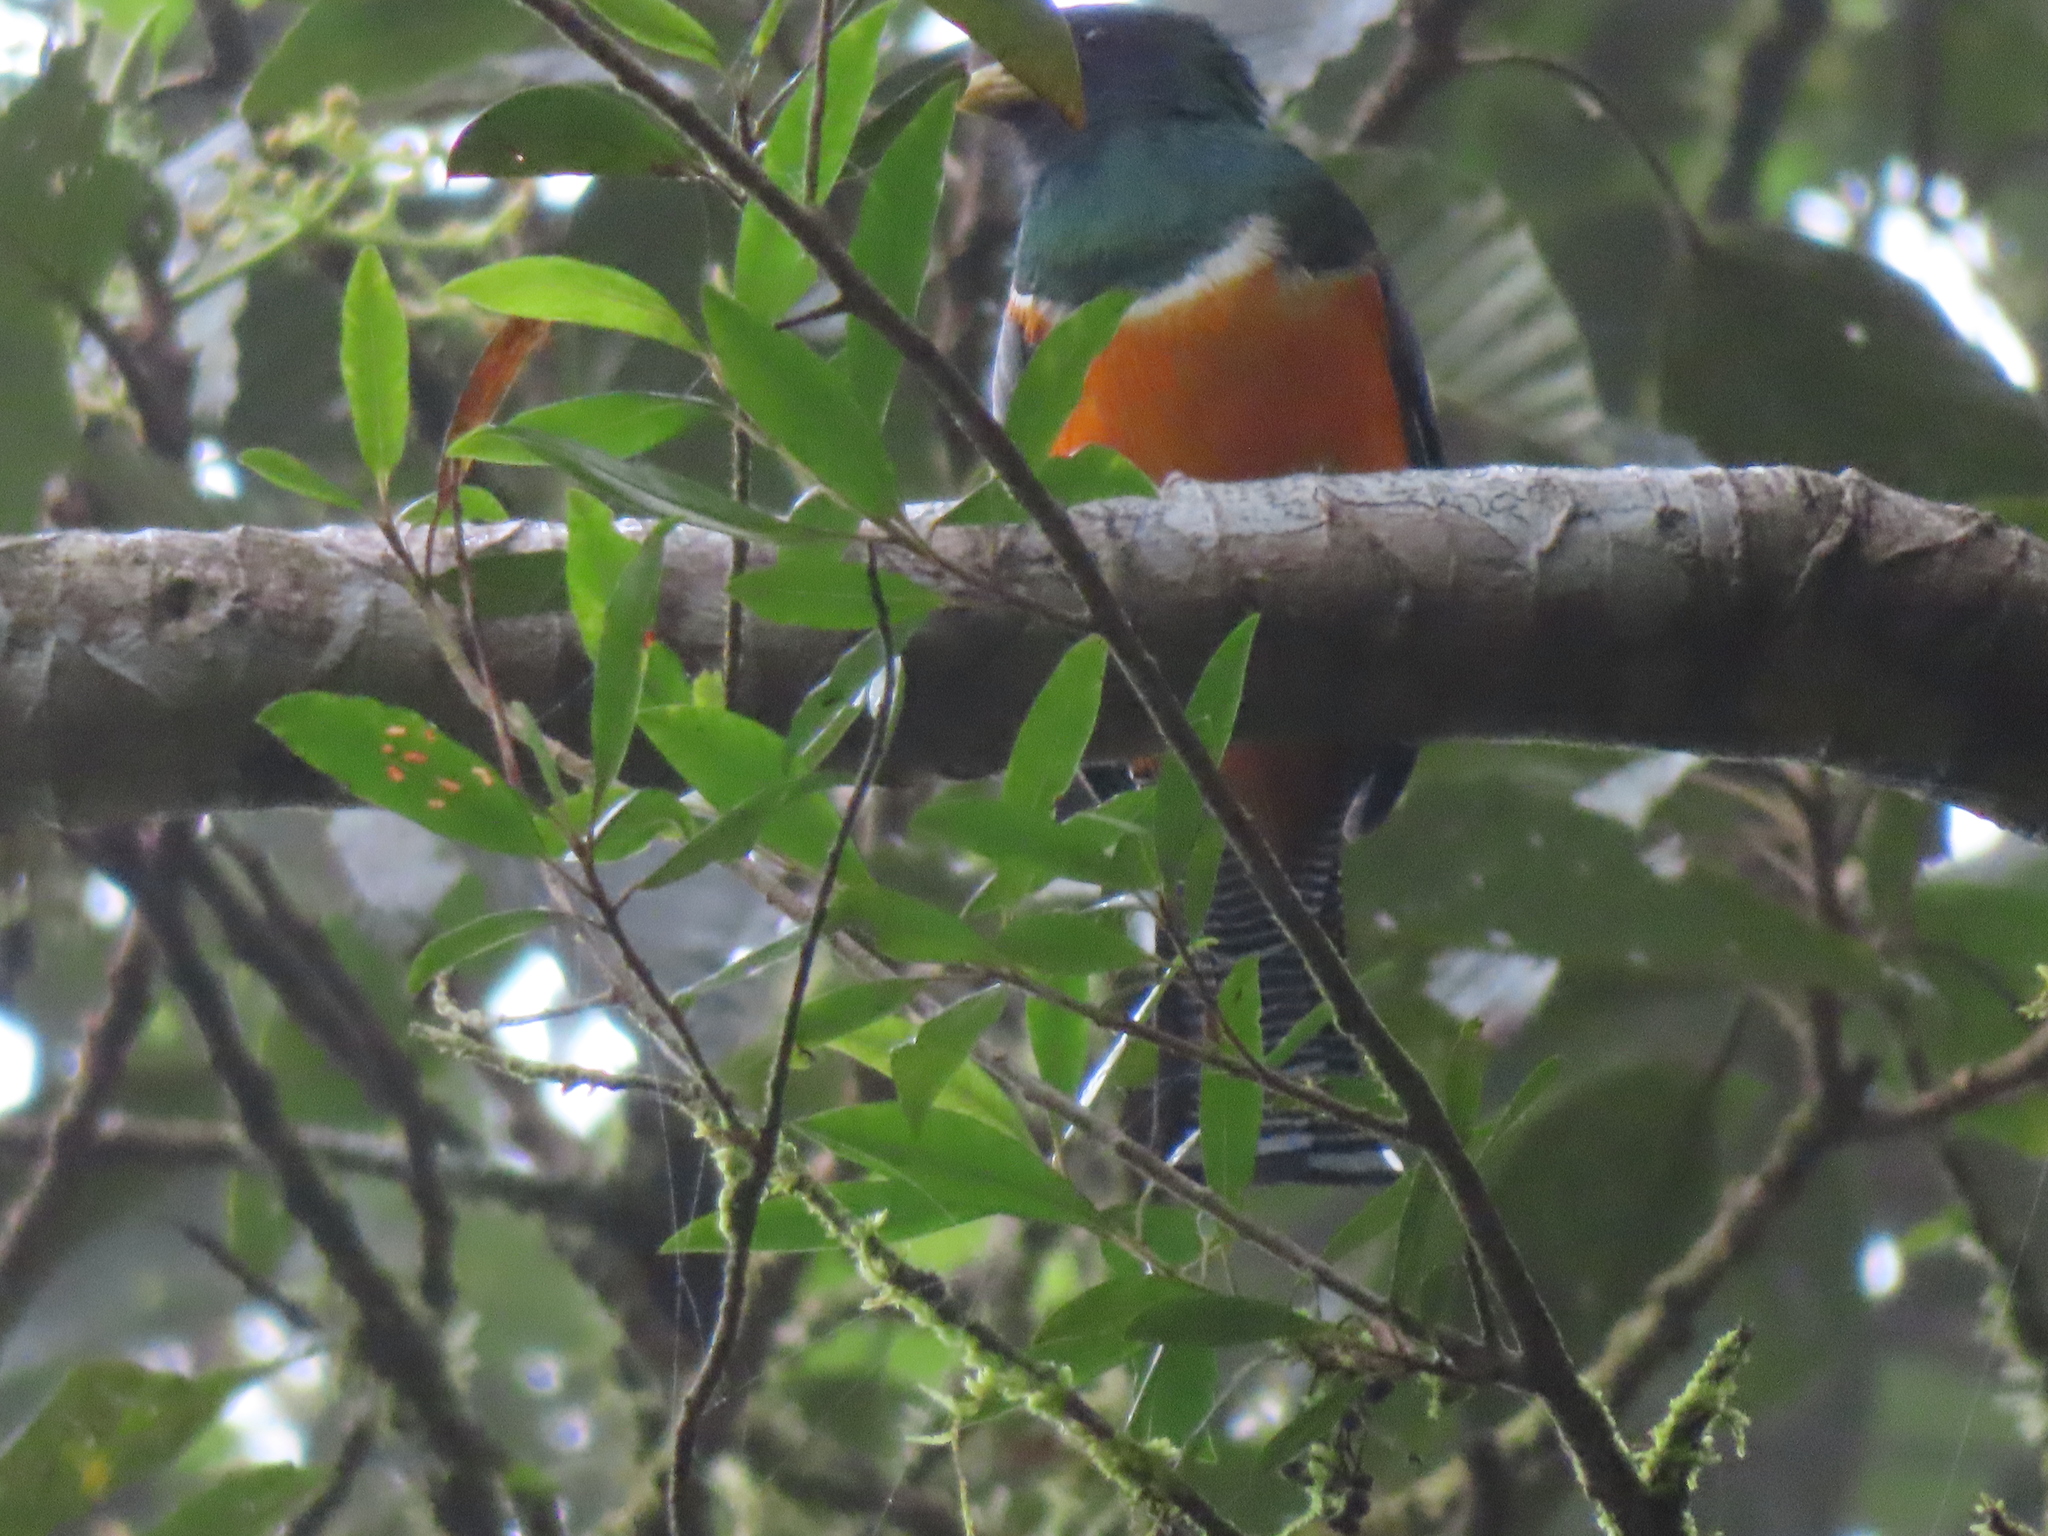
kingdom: Animalia
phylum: Chordata
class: Aves
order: Trogoniformes
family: Trogonidae
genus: Trogon
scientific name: Trogon collaris
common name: Collared trogon
